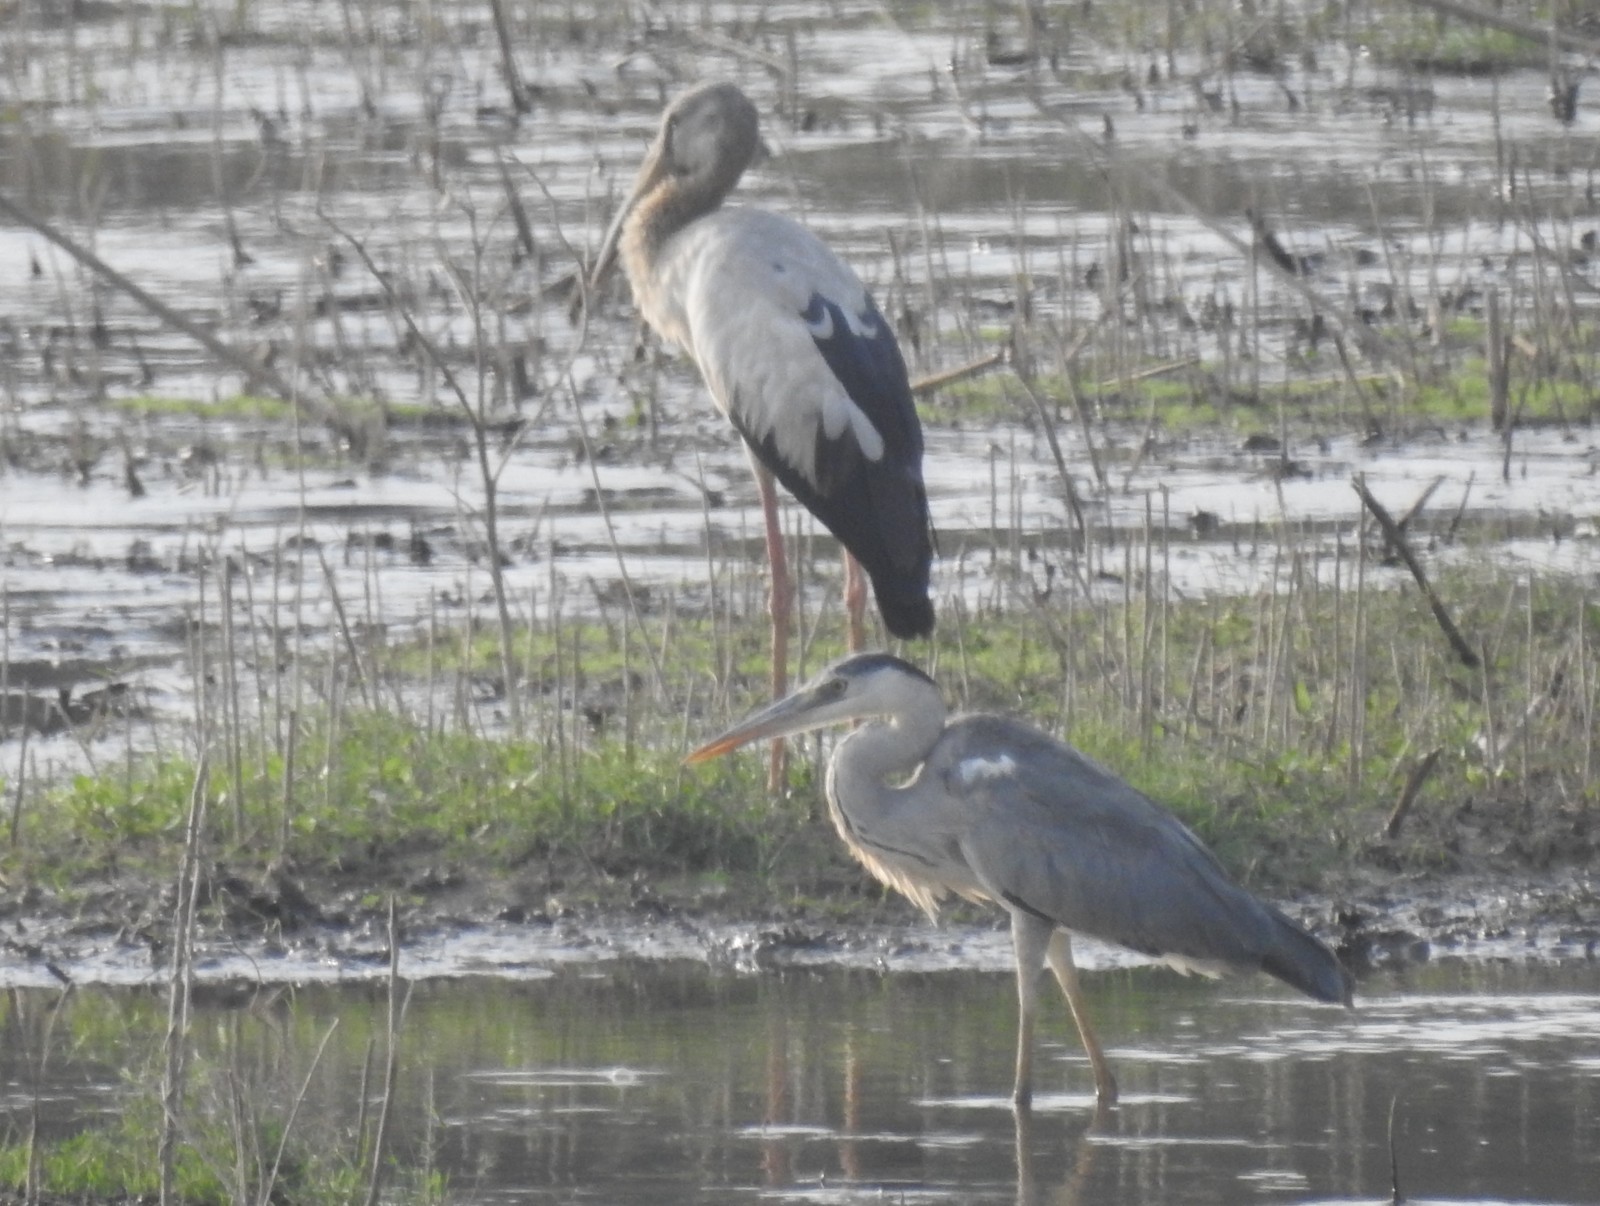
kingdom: Animalia
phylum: Chordata
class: Aves
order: Pelecaniformes
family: Ardeidae
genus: Ardea
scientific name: Ardea cinerea
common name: Grey heron
